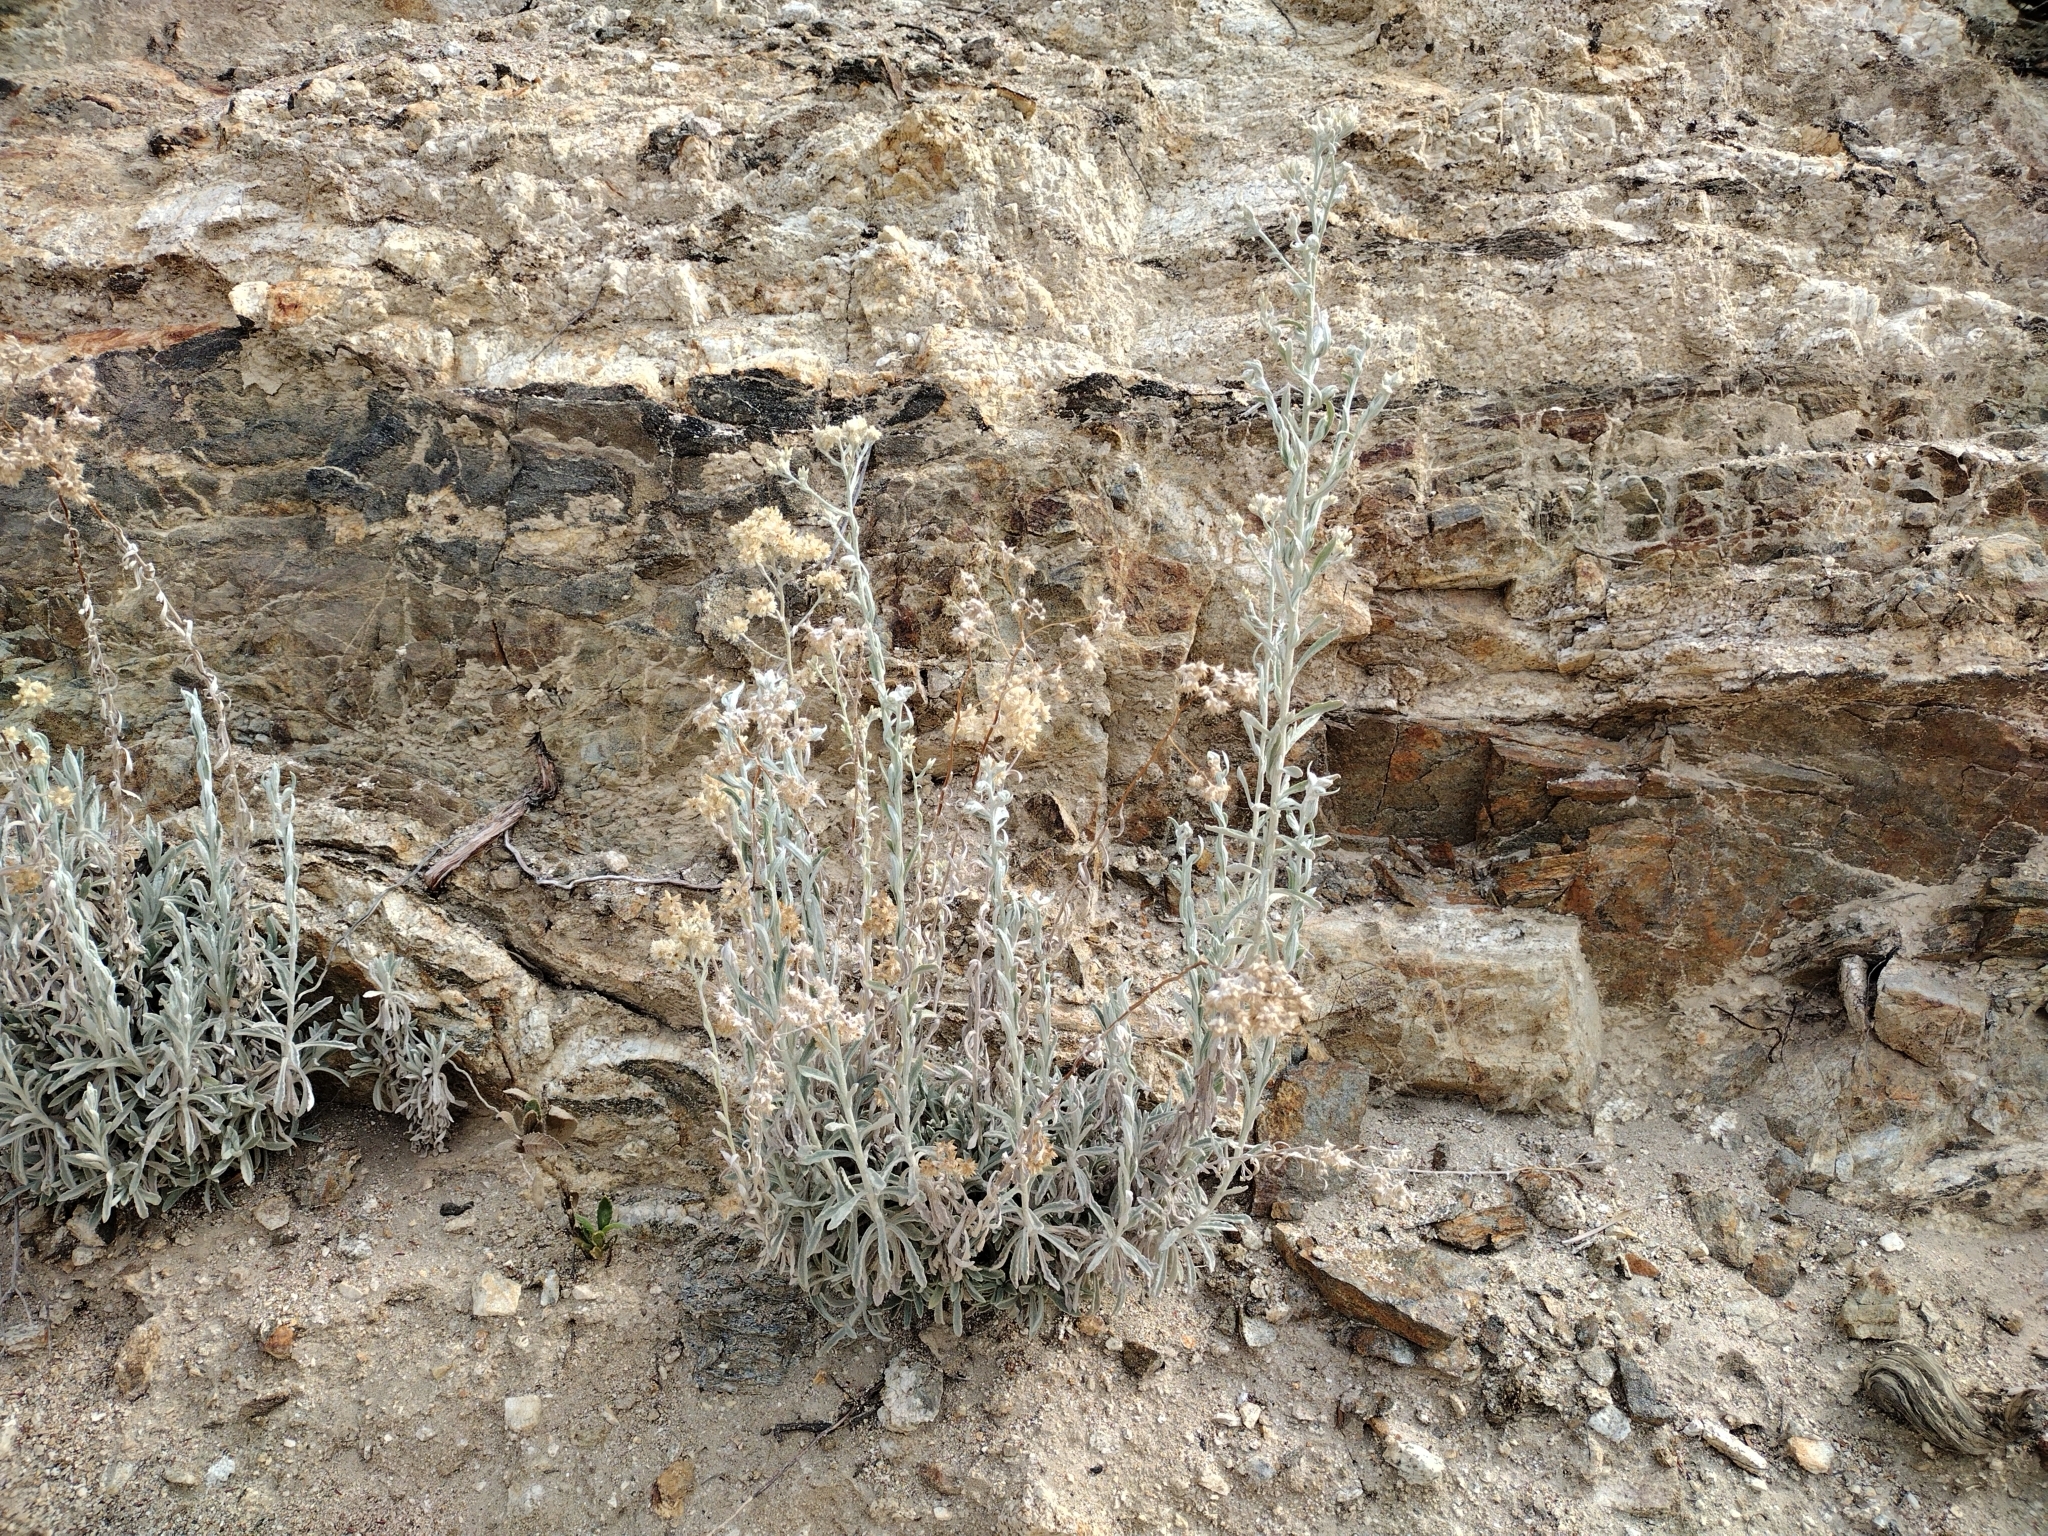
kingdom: Plantae
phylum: Tracheophyta
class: Magnoliopsida
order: Asterales
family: Asteraceae
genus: Pseudognaphalium
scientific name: Pseudognaphalium microcephalum
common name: San diego rabbit-tobacco
